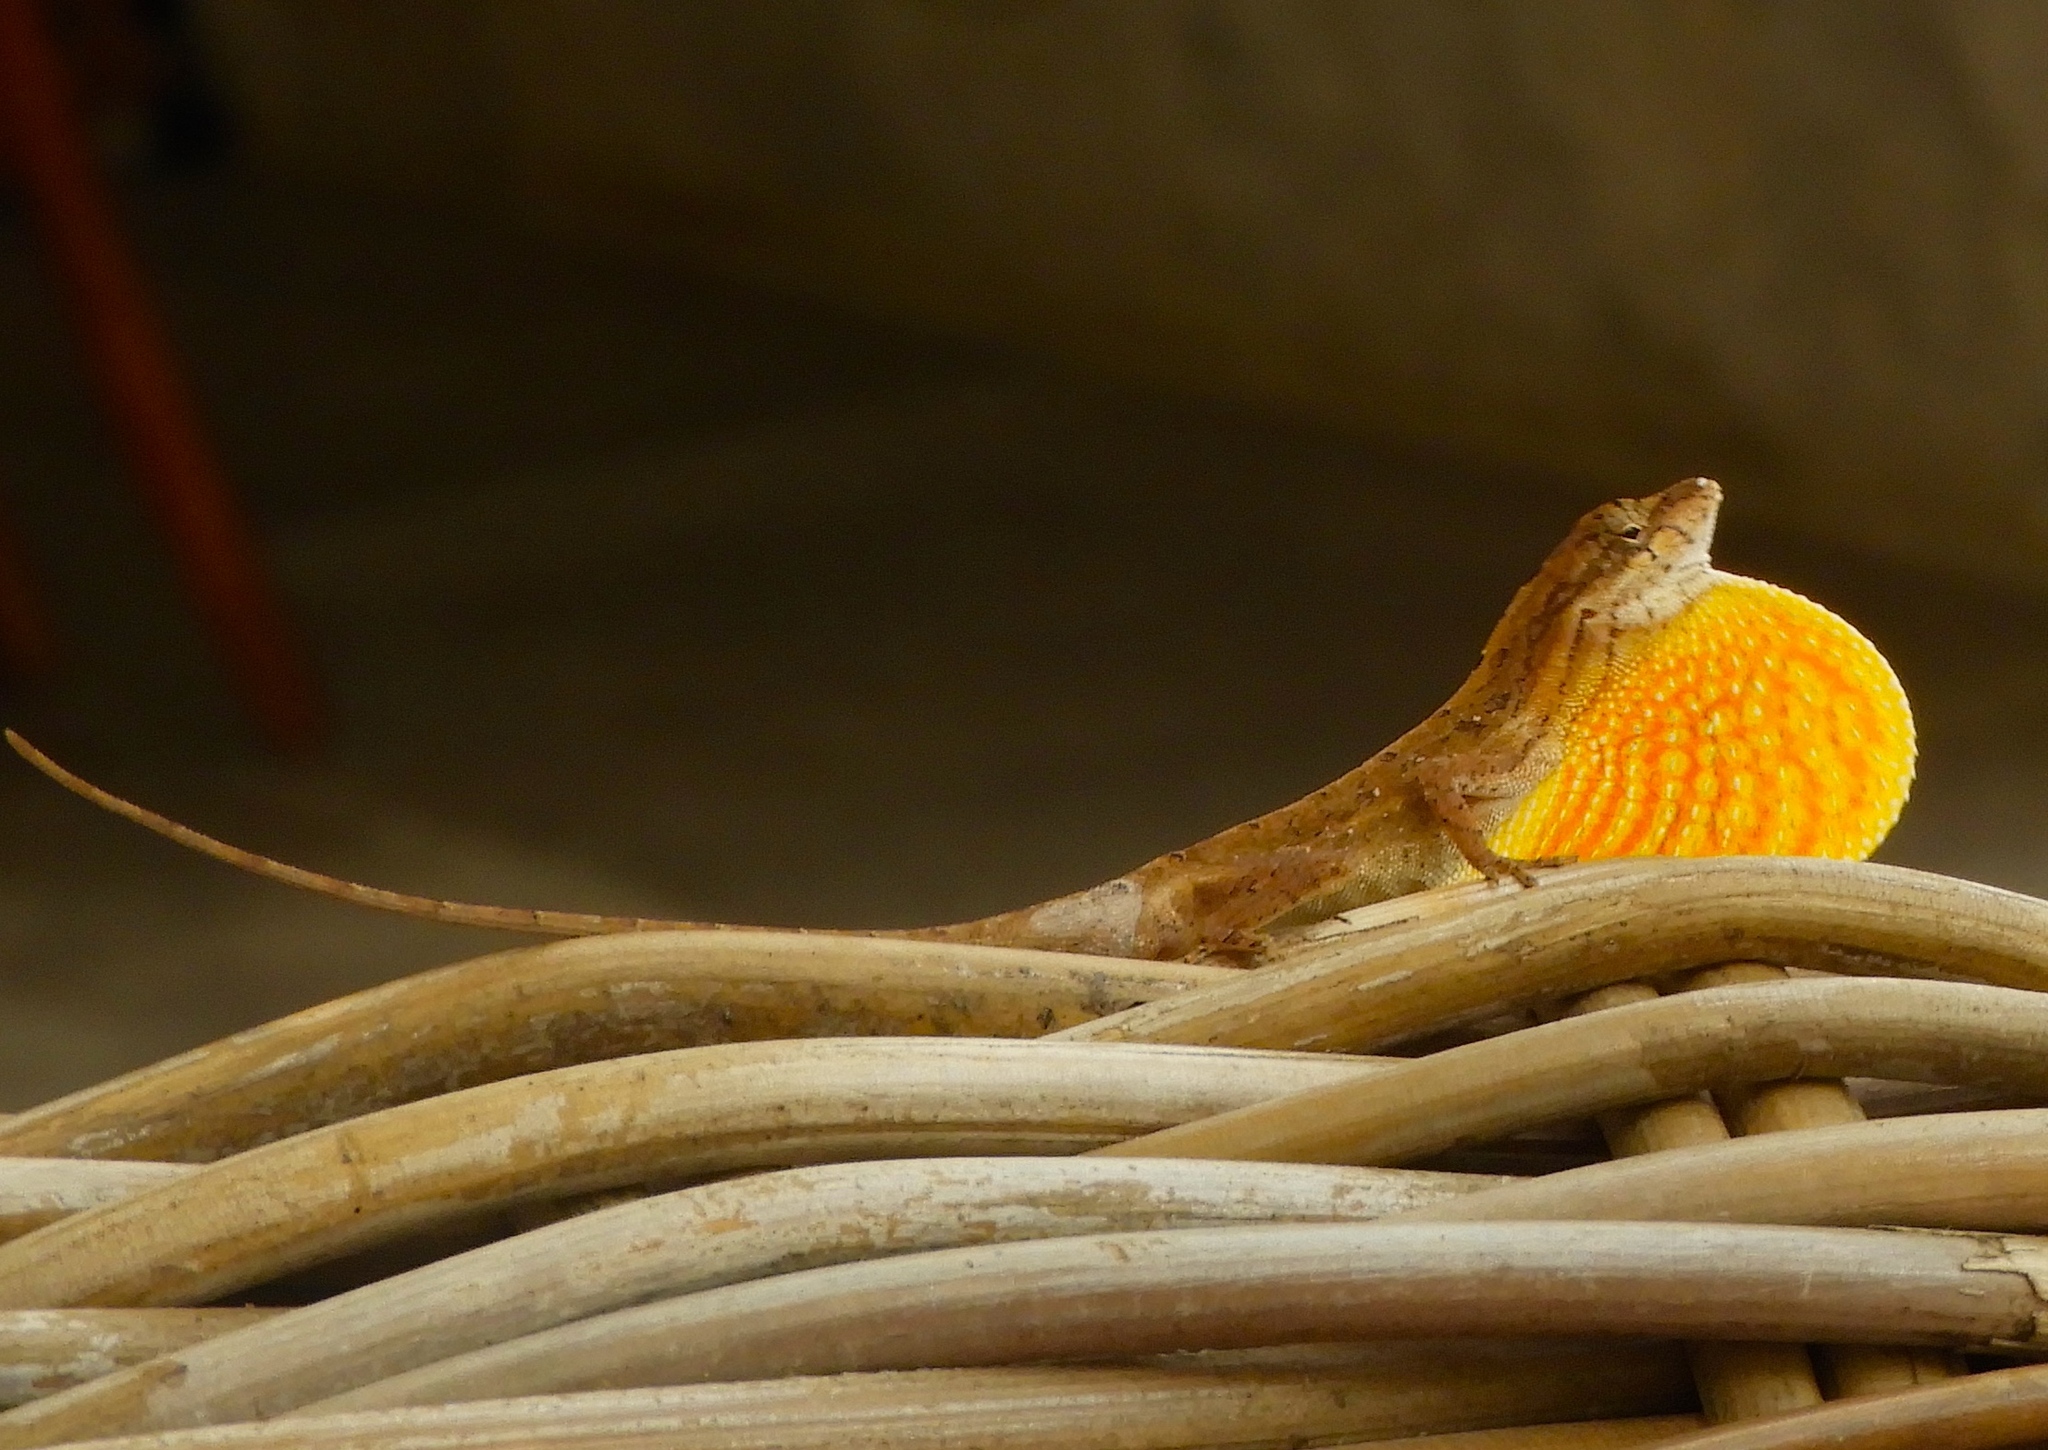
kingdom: Animalia
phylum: Chordata
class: Squamata
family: Dactyloidae
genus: Anolis
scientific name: Anolis nebulosus
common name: Clouded anole
